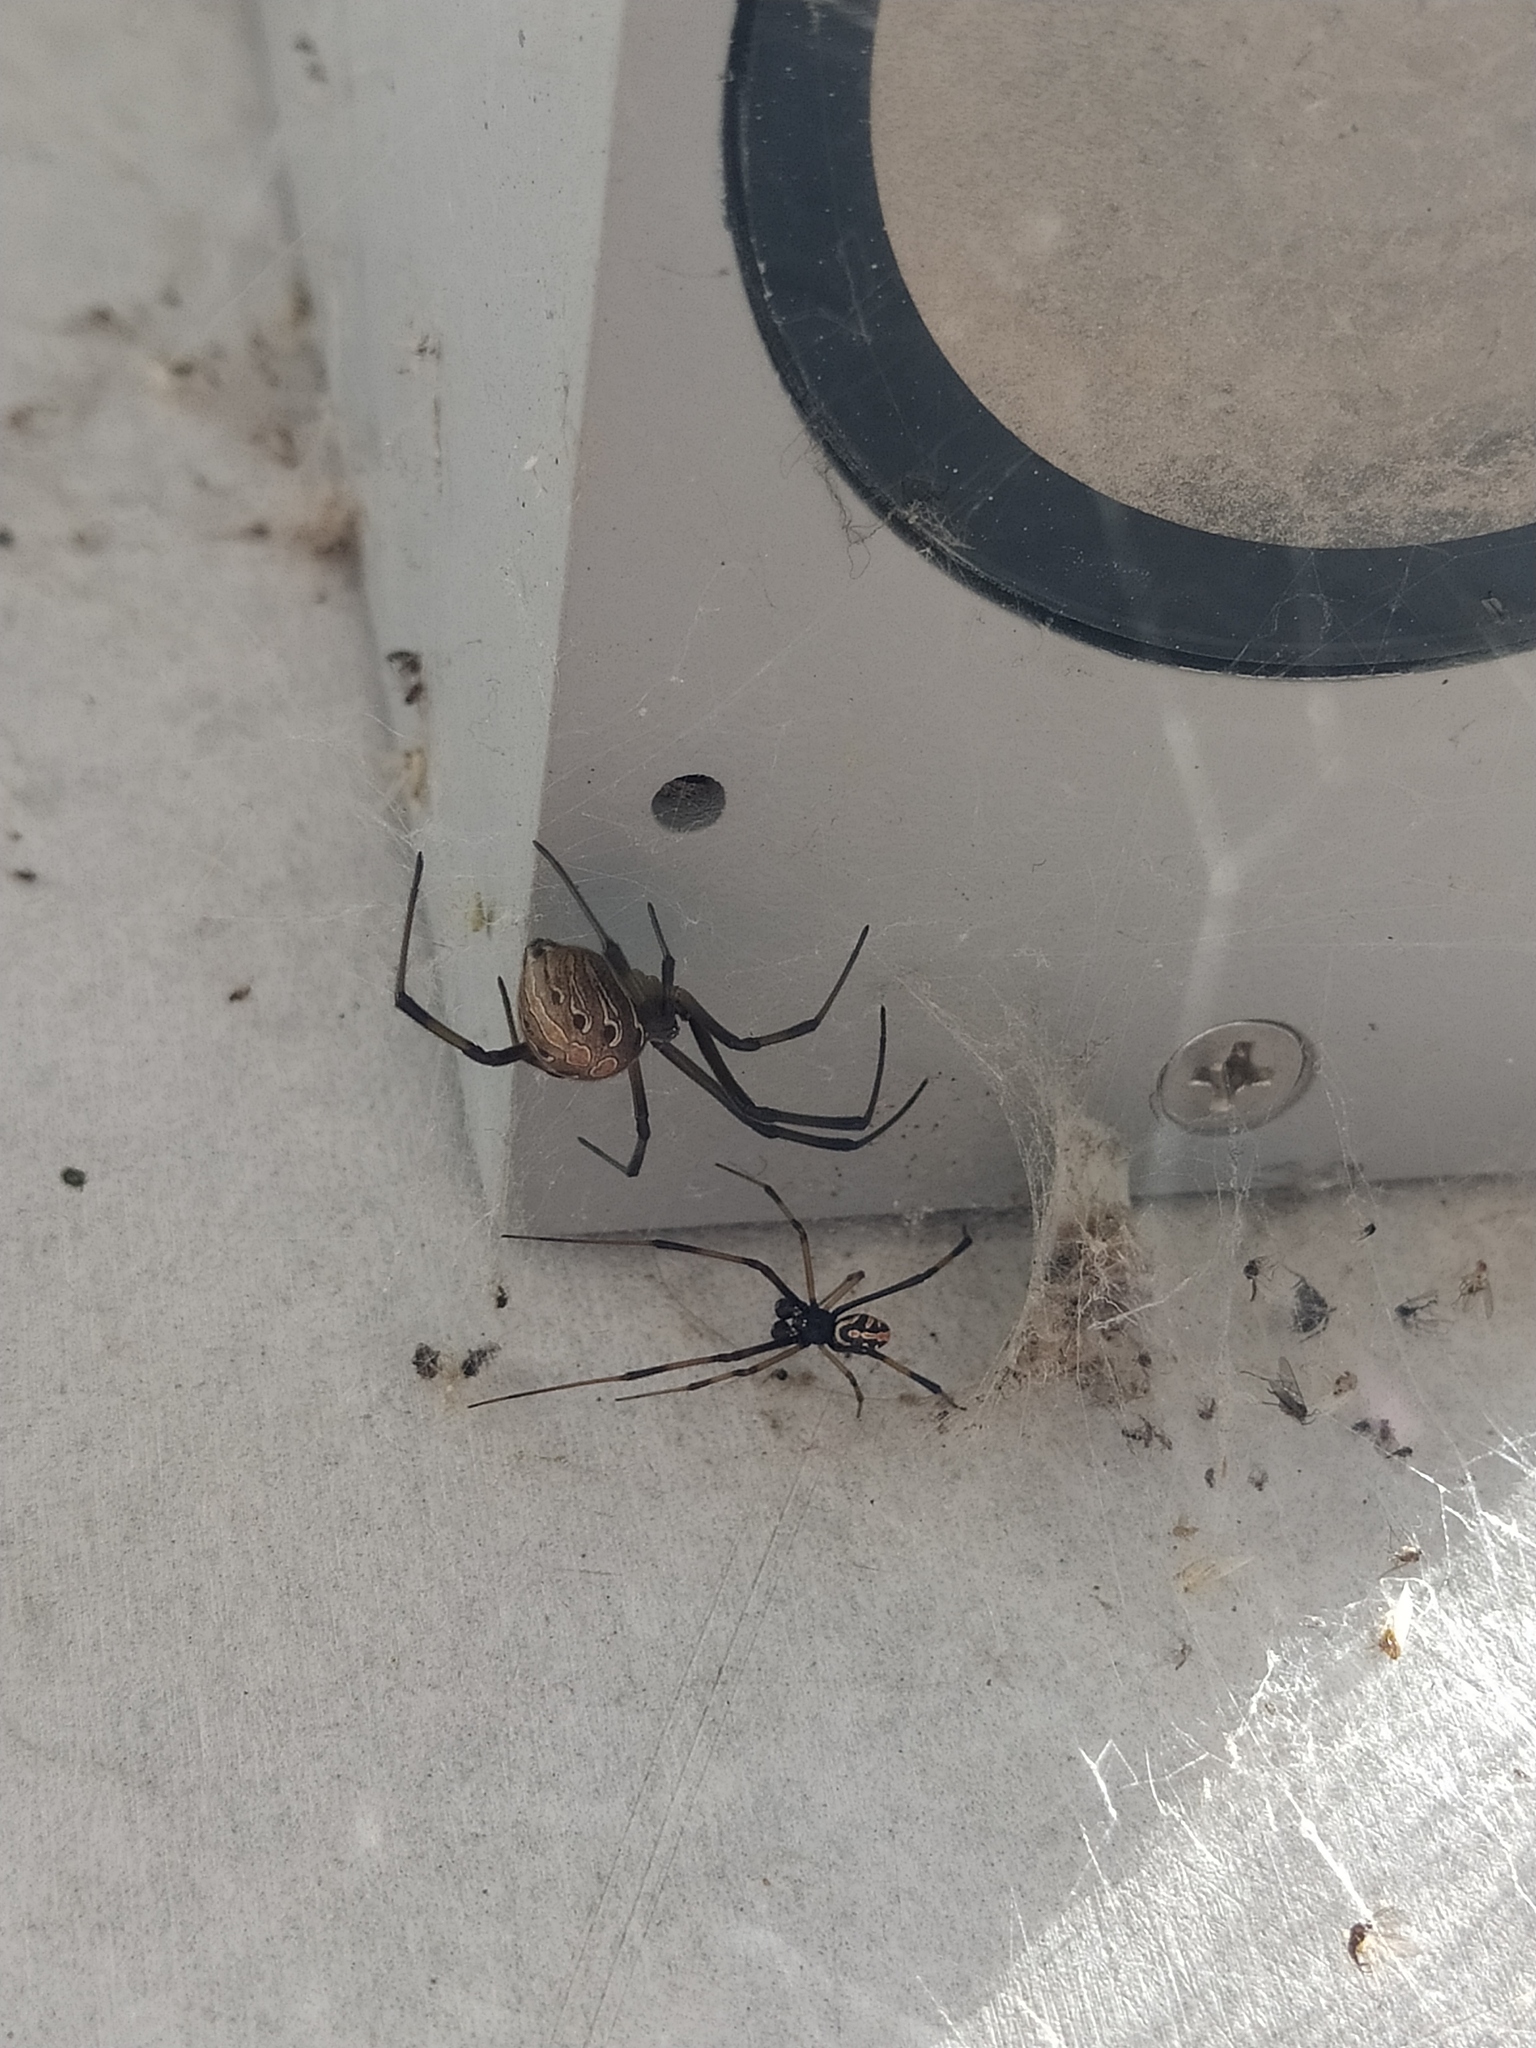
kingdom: Animalia
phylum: Arthropoda
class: Arachnida
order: Araneae
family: Theridiidae
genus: Latrodectus
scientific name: Latrodectus geometricus
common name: Brown widow spider
